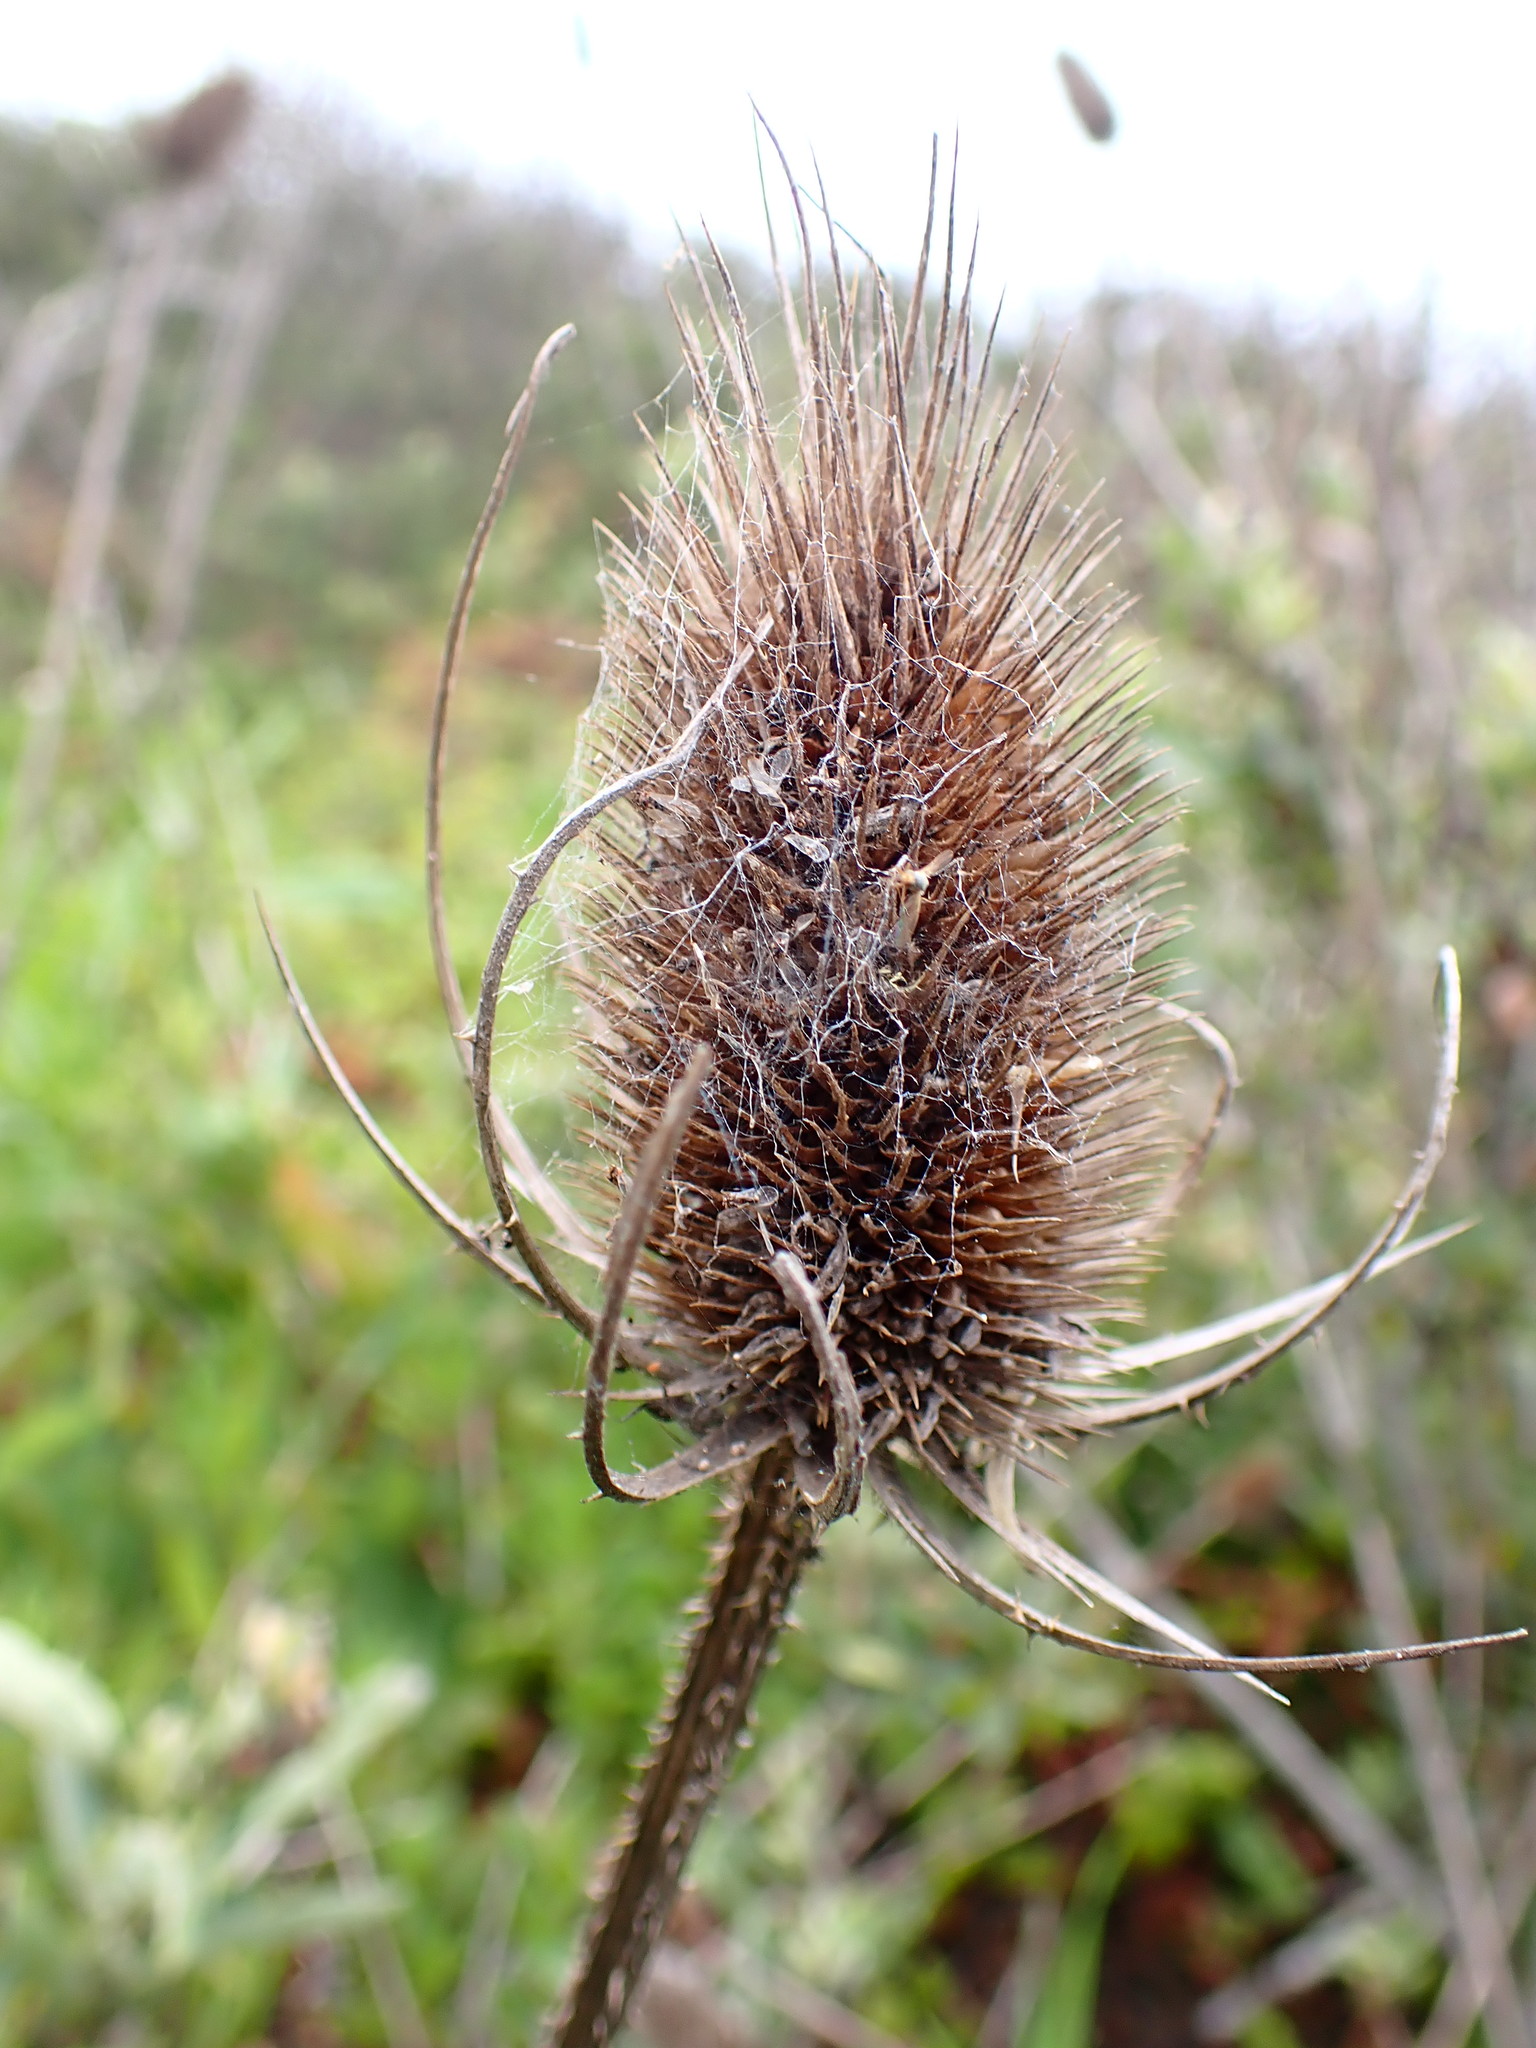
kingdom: Plantae
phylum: Tracheophyta
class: Magnoliopsida
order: Dipsacales
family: Caprifoliaceae
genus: Dipsacus
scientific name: Dipsacus fullonum
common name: Teasel
